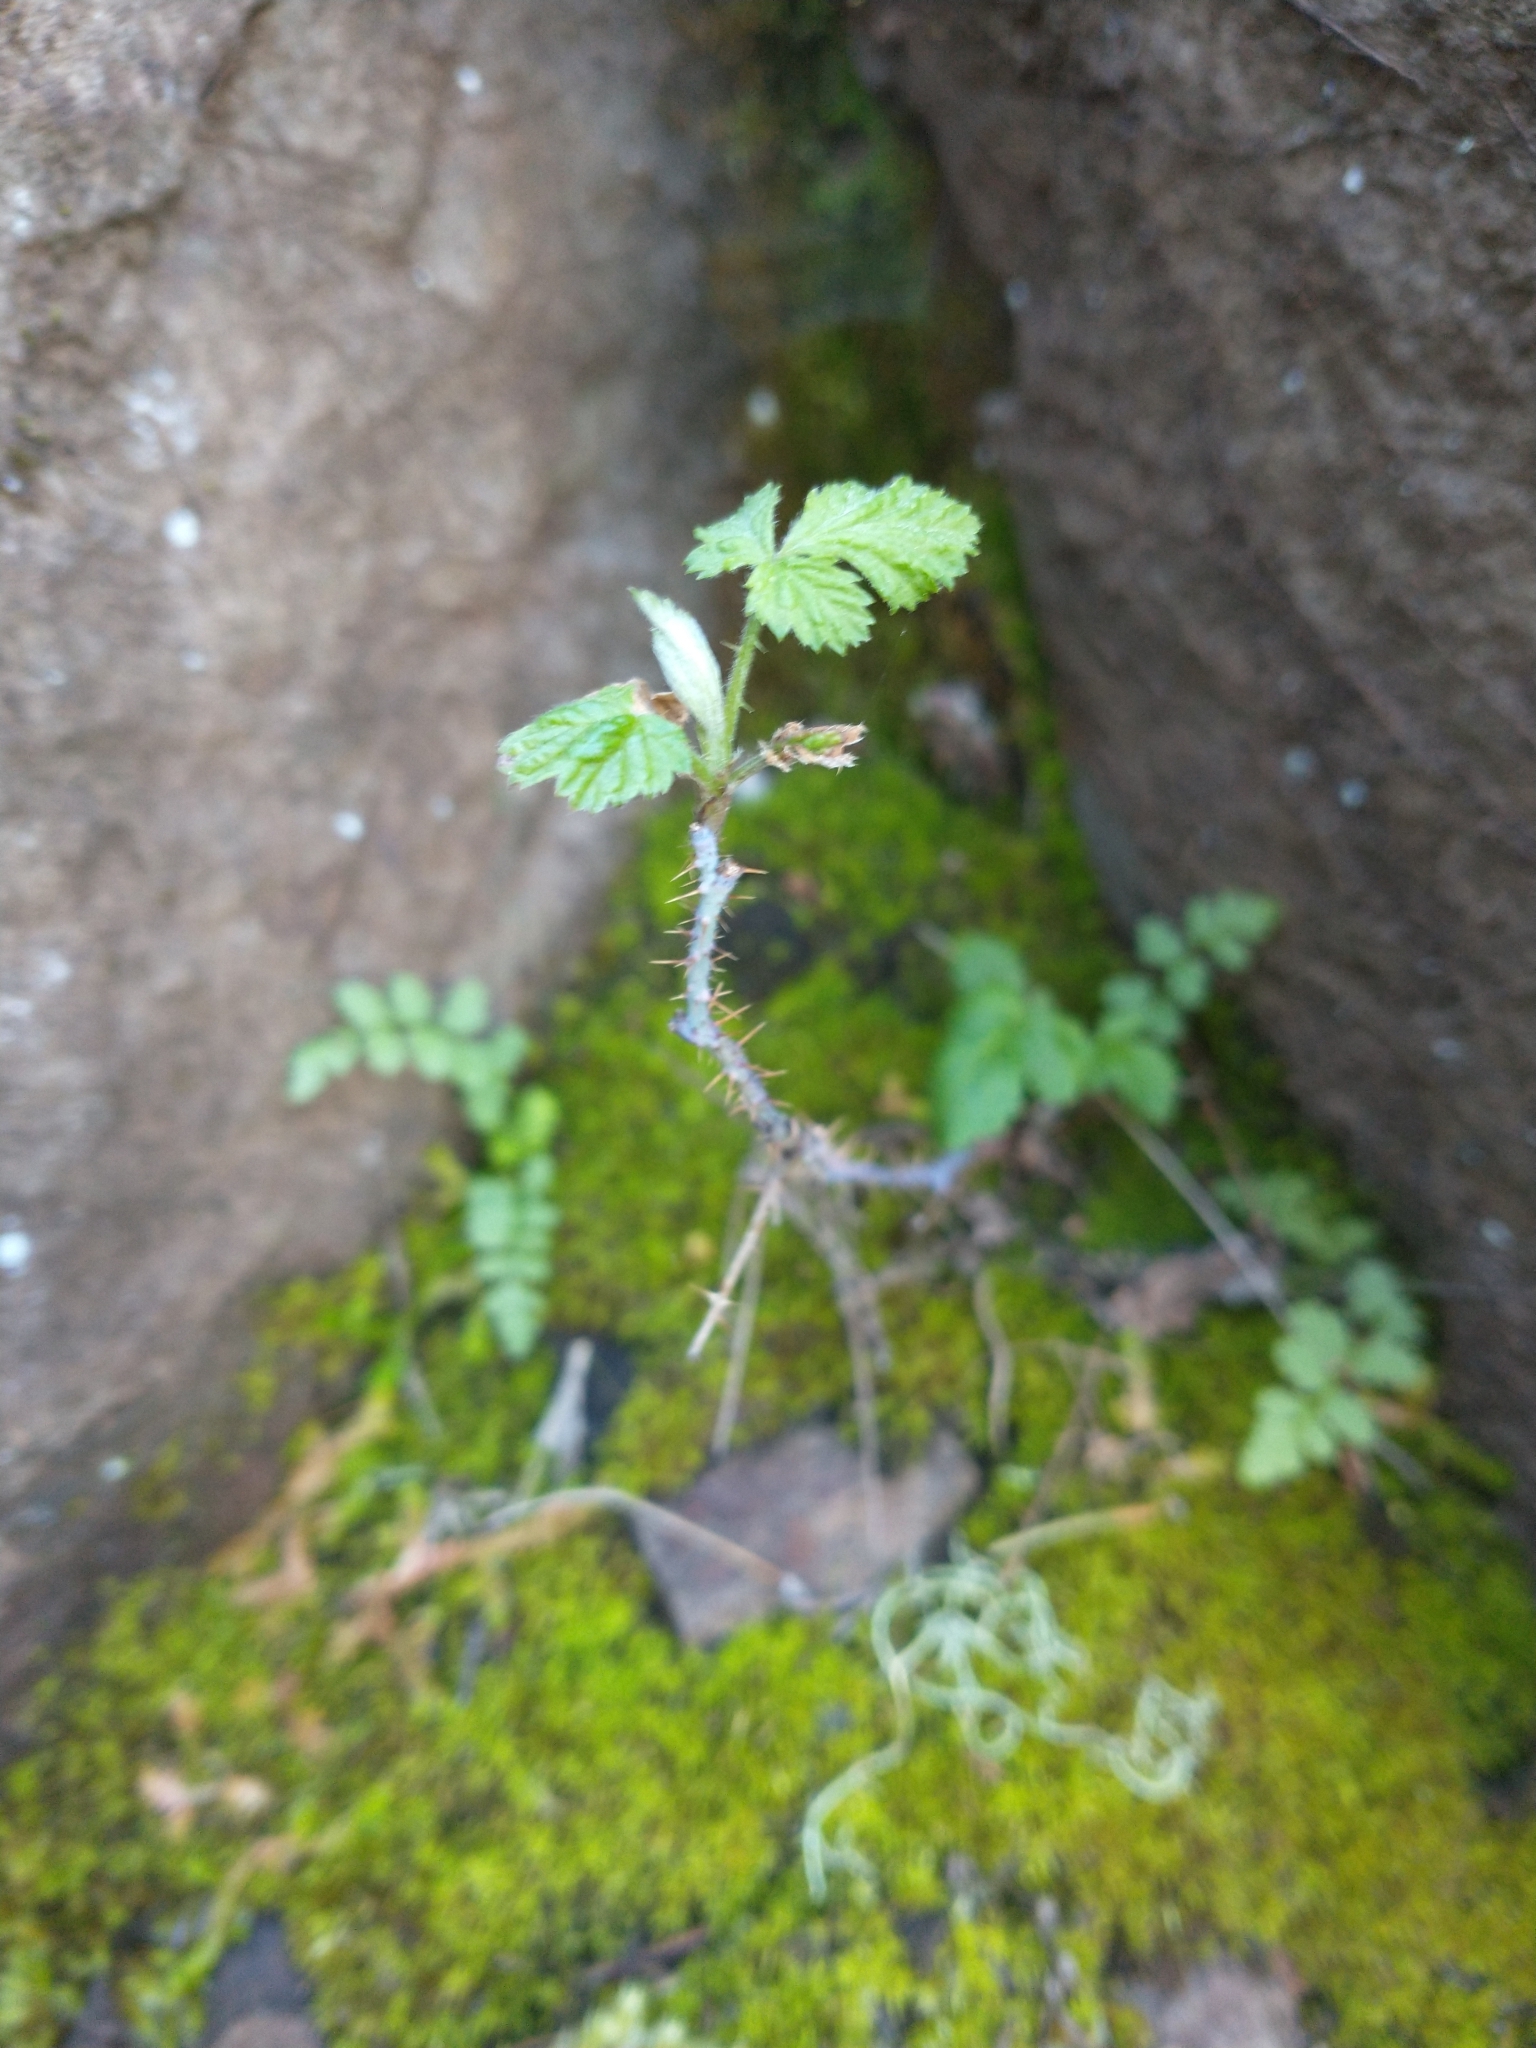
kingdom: Plantae
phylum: Tracheophyta
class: Magnoliopsida
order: Rosales
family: Rosaceae
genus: Rubus
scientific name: Rubus leucodermis
